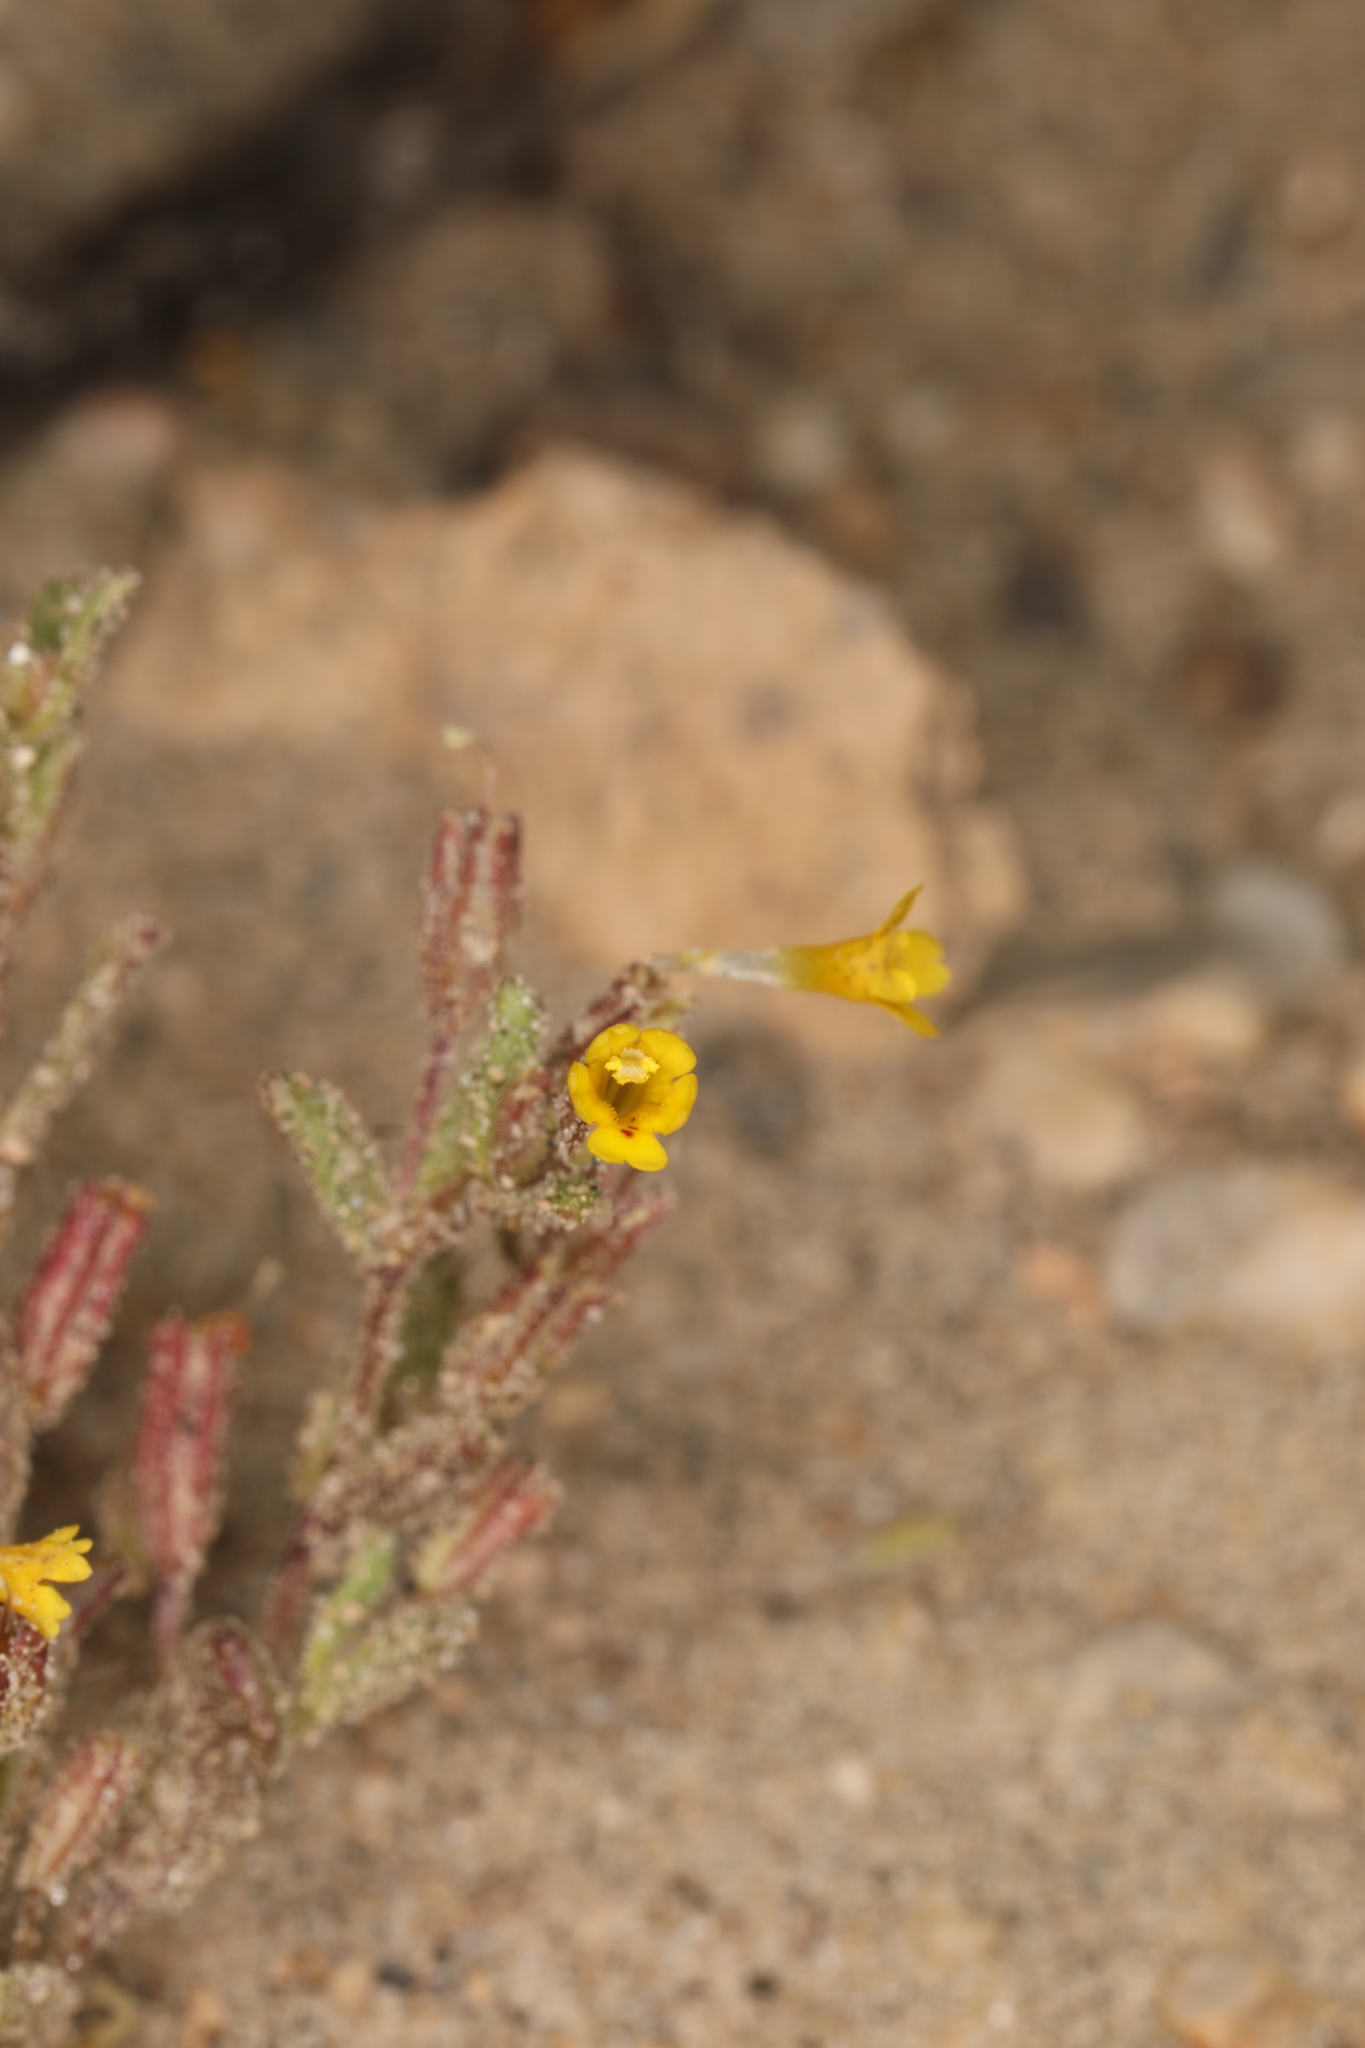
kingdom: Plantae
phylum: Tracheophyta
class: Magnoliopsida
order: Lamiales
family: Phrymaceae
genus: Erythranthe
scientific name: Erythranthe suksdorfii
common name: Suksdorf's monkeyflower
